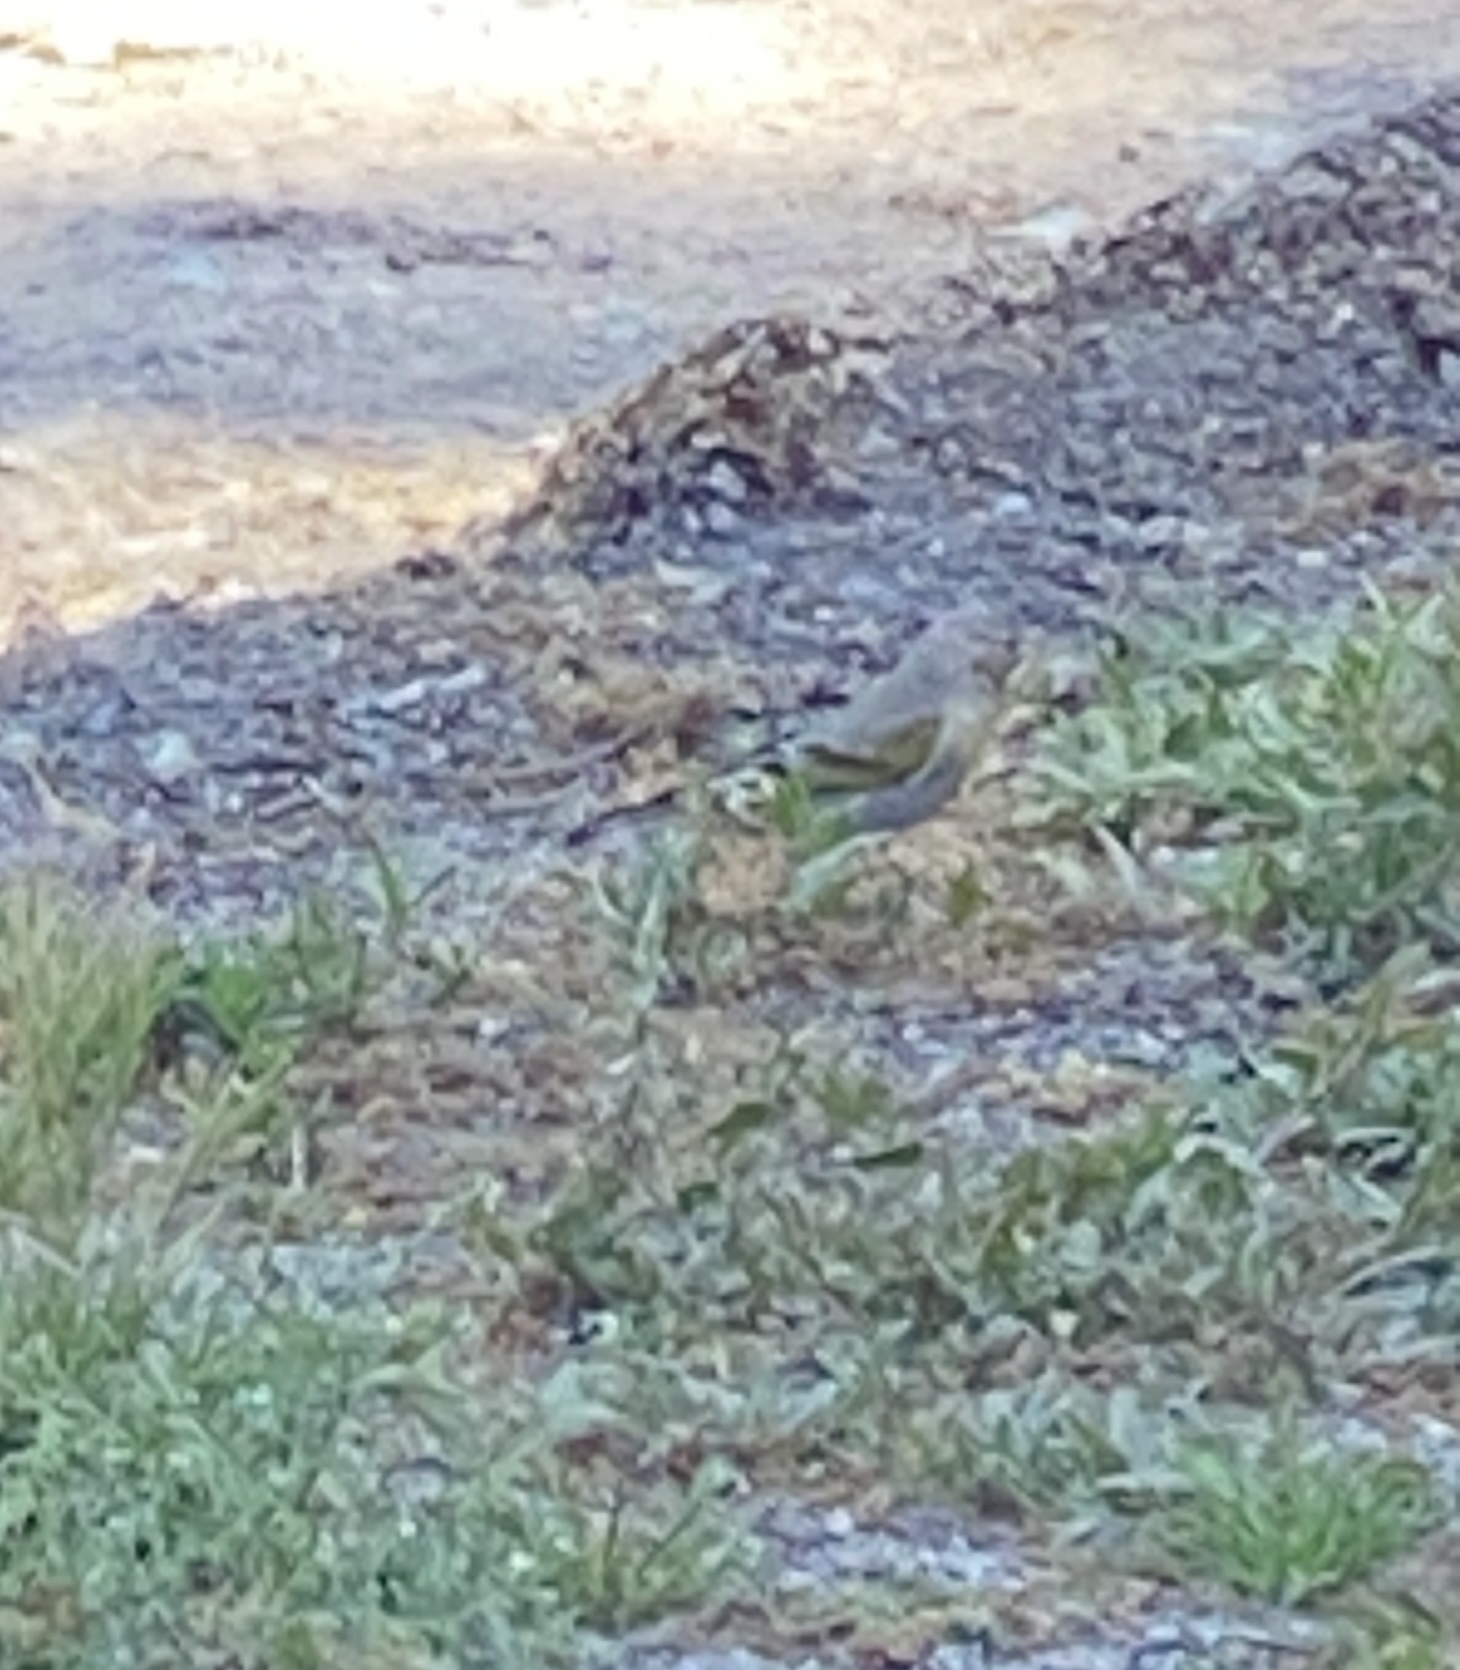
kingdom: Animalia
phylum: Chordata
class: Aves
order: Passeriformes
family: Fringillidae
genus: Spinus
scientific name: Spinus lawrencei
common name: Lawrence's goldfinch
